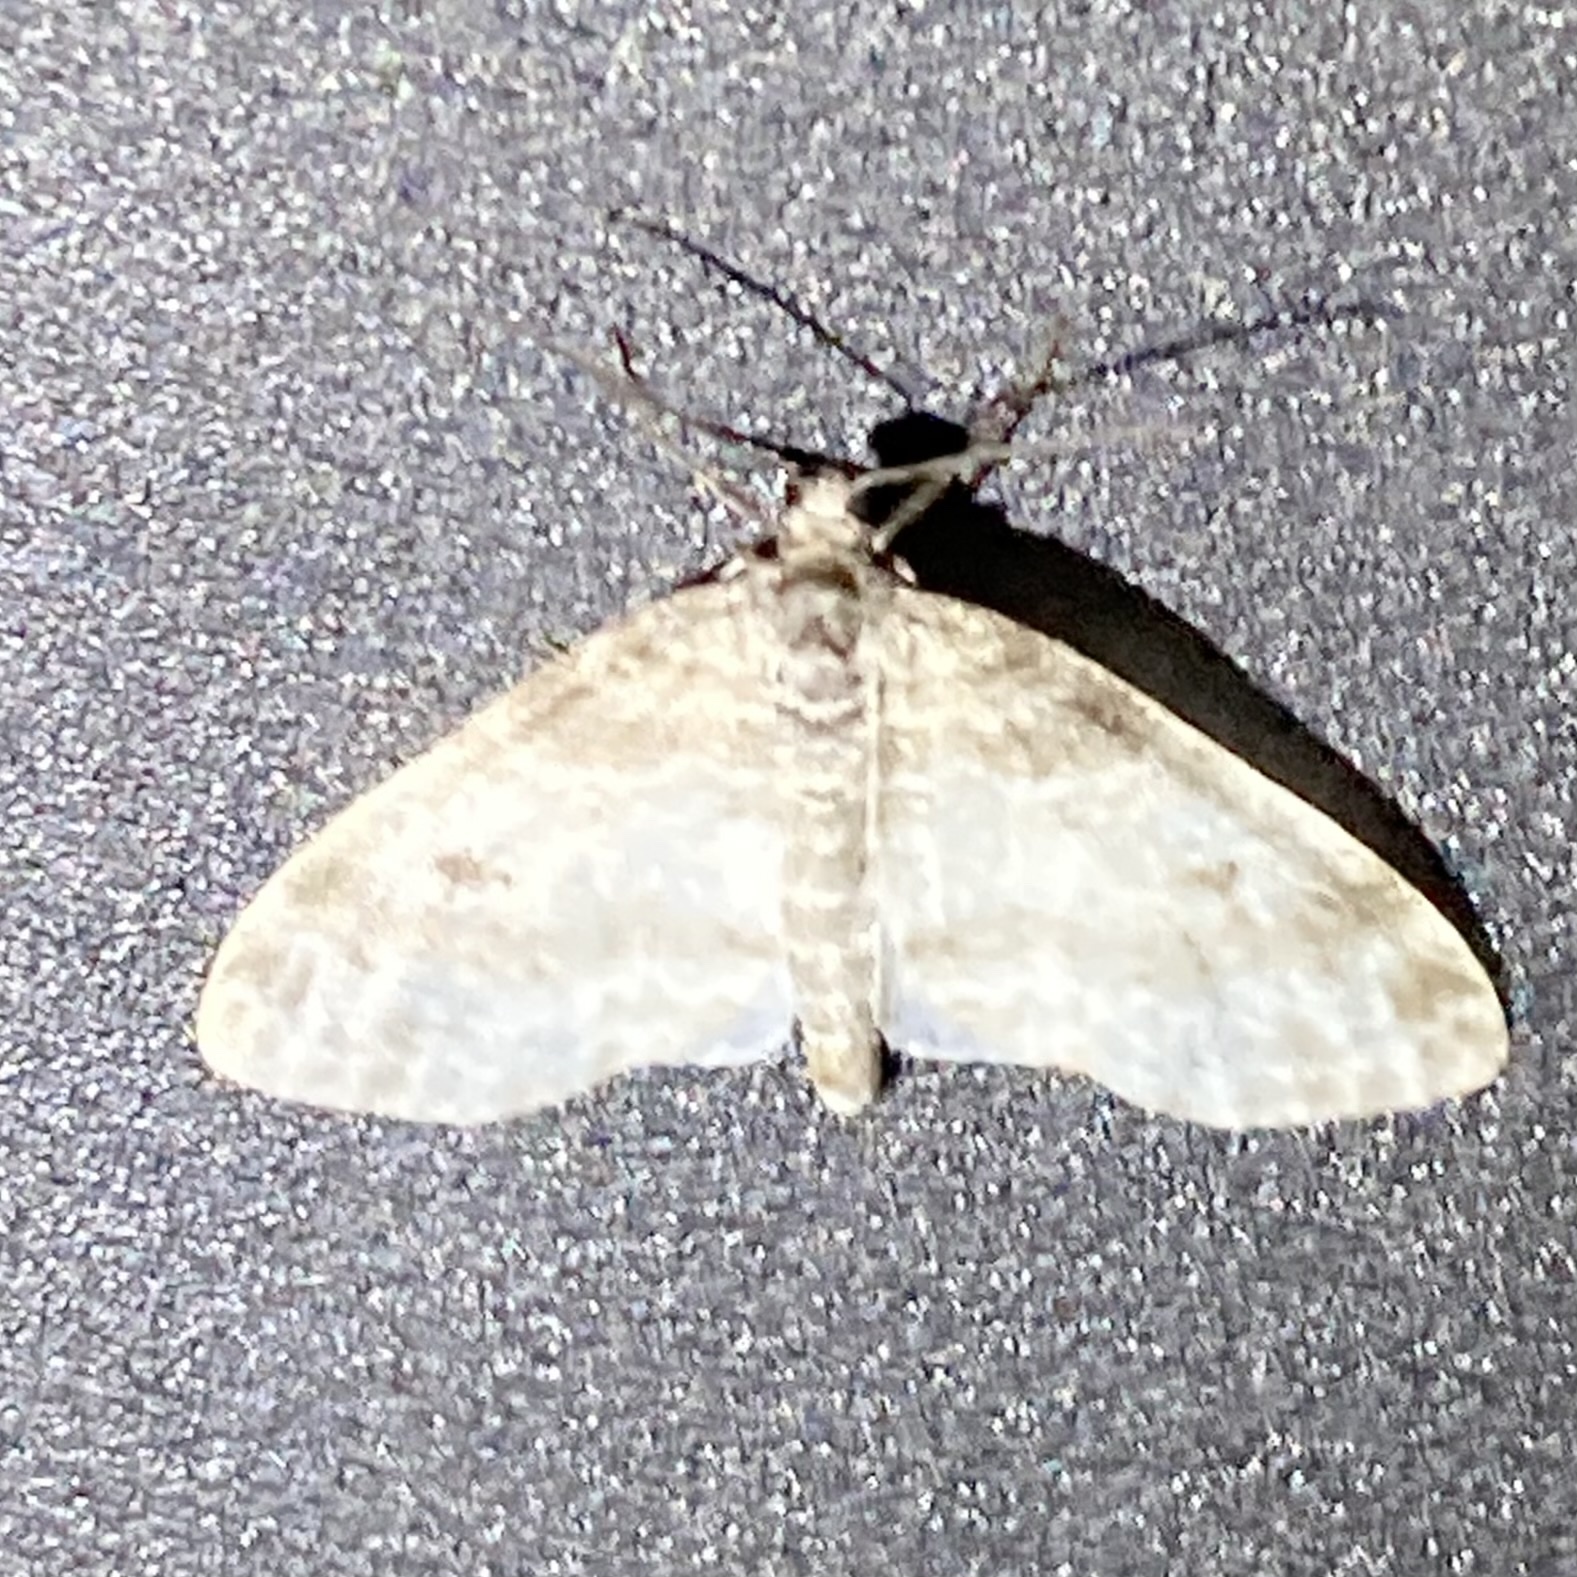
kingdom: Animalia
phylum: Arthropoda
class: Insecta
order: Lepidoptera
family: Geometridae
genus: Lobophora
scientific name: Lobophora nivigerata
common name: Powdered bigwing
